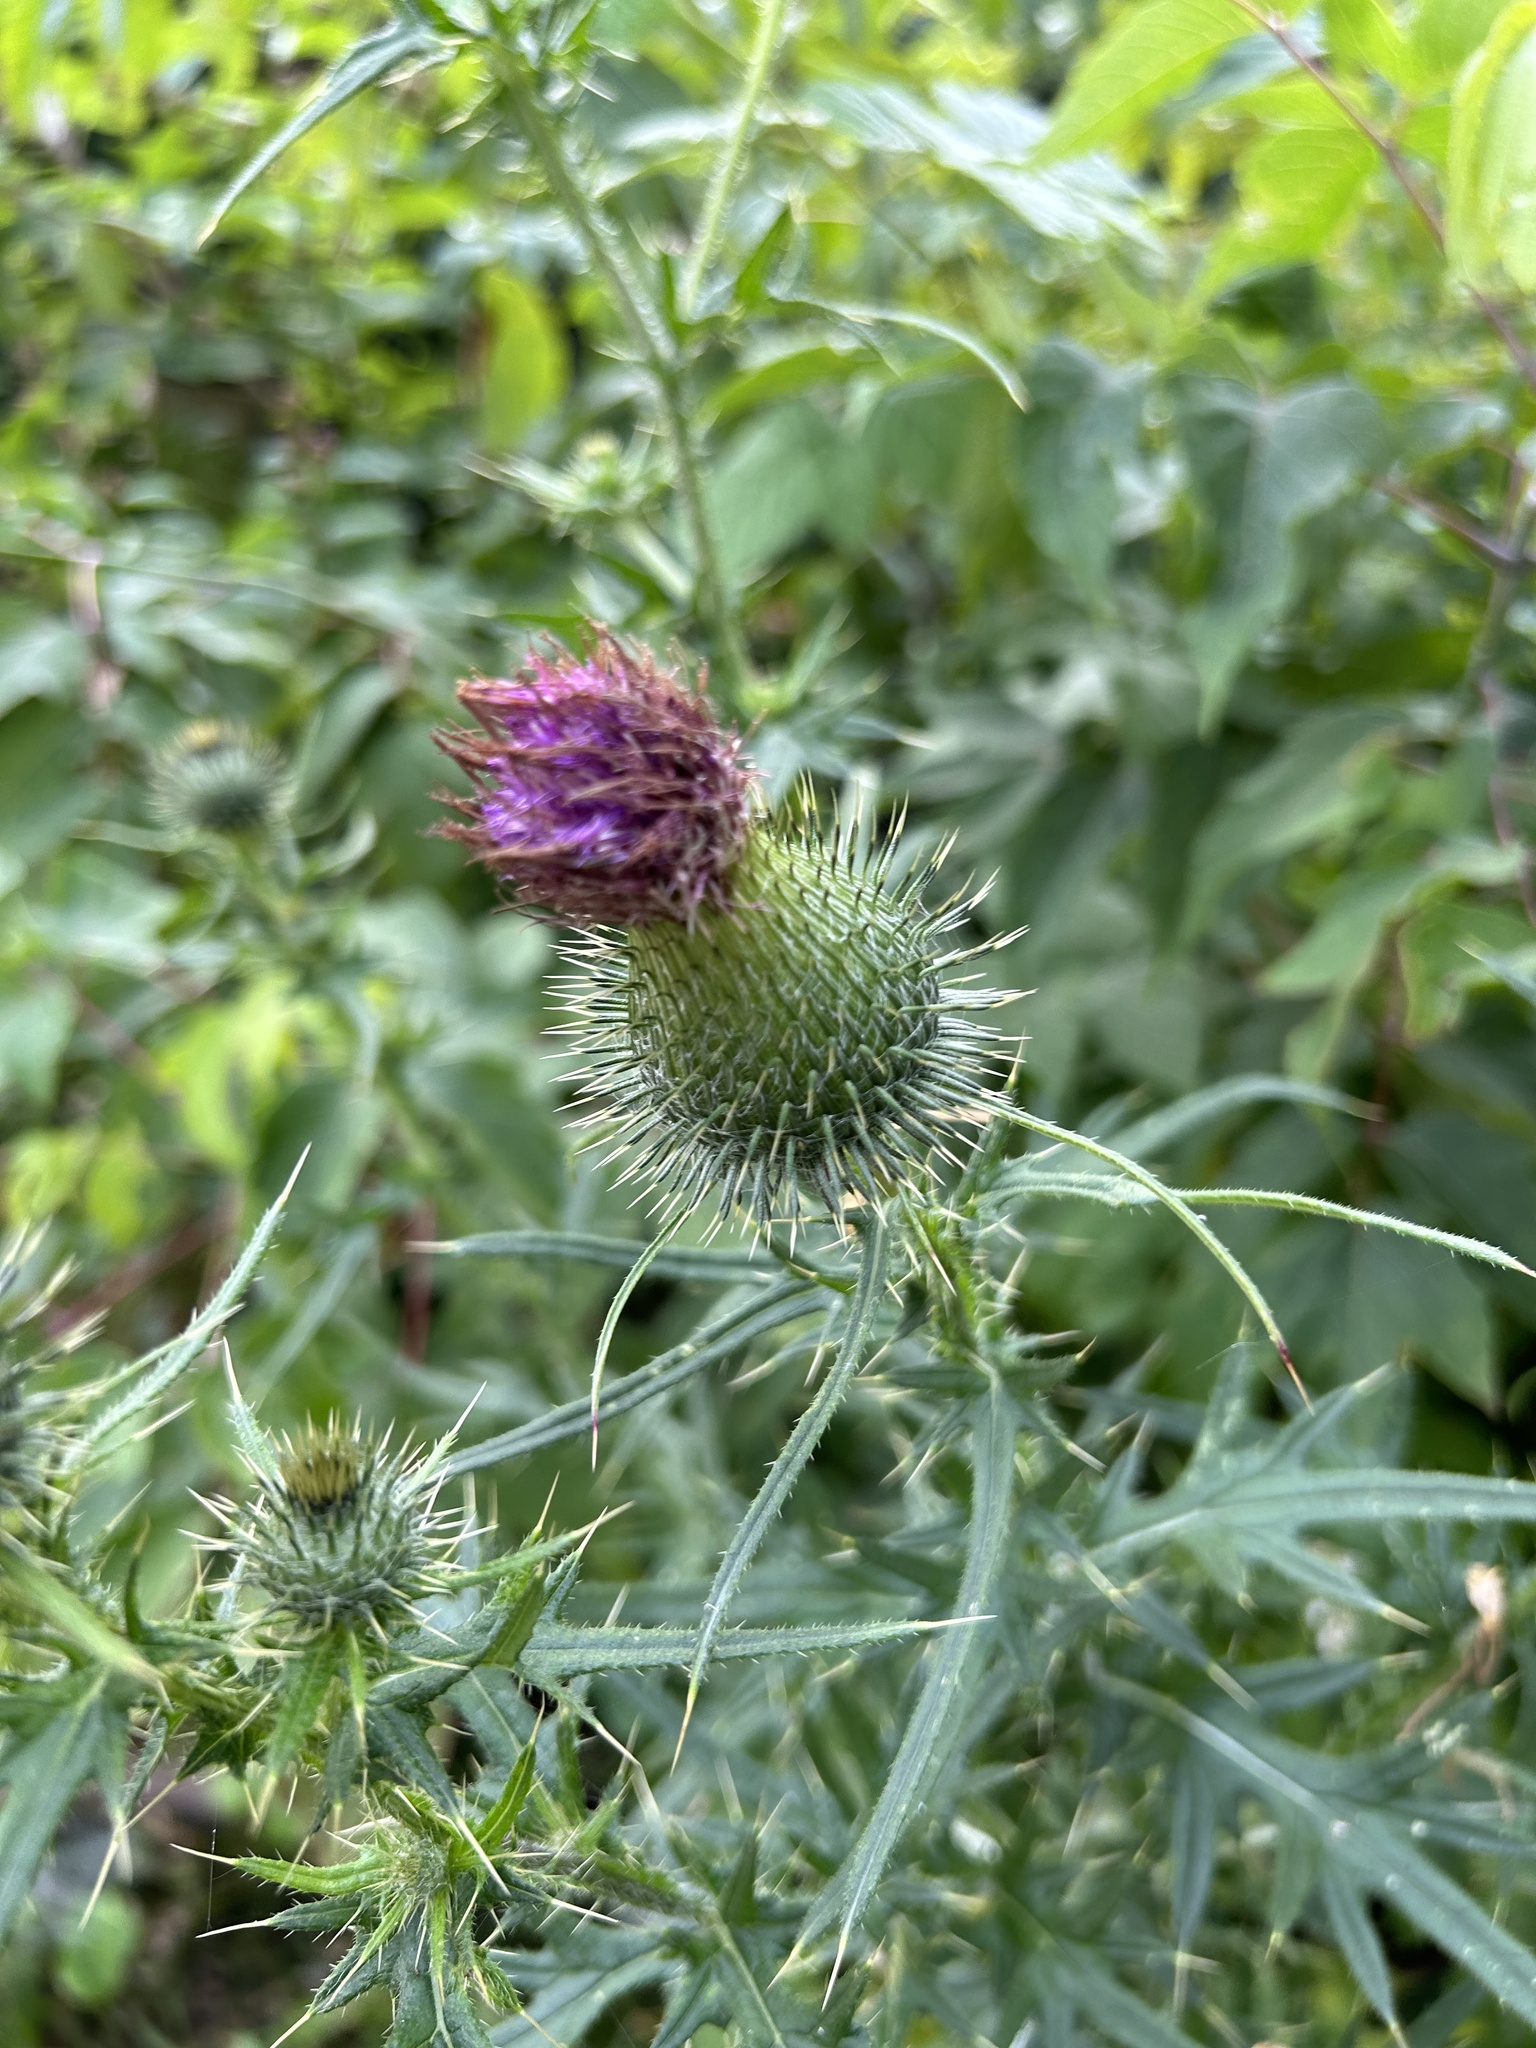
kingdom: Plantae
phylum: Tracheophyta
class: Magnoliopsida
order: Asterales
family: Asteraceae
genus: Cirsium
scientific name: Cirsium vulgare
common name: Bull thistle
